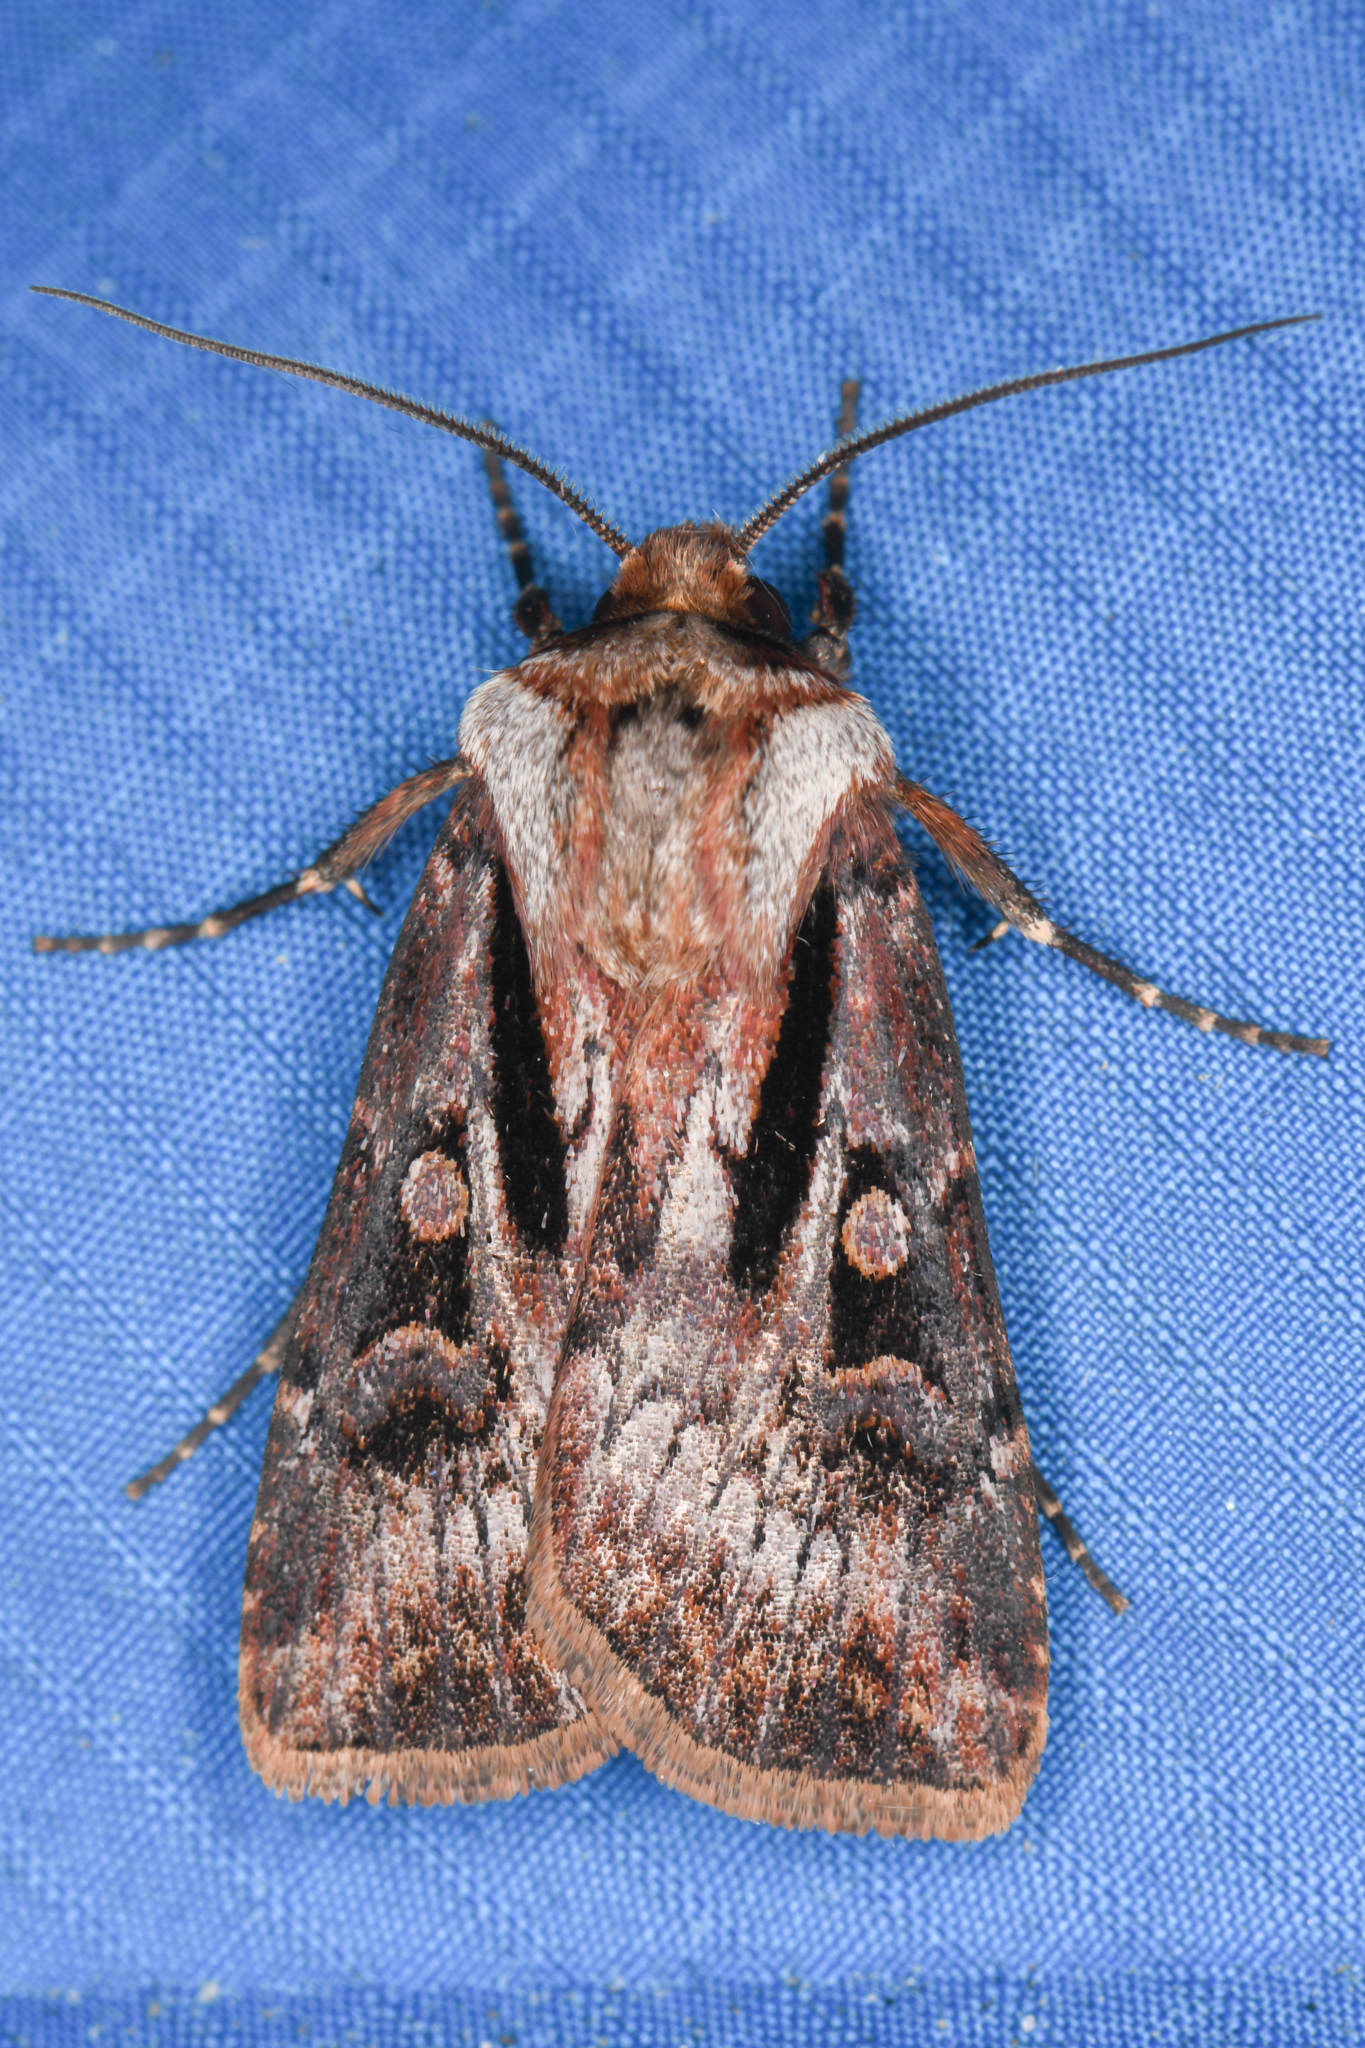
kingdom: Animalia
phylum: Arthropoda
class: Insecta
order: Lepidoptera
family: Noctuidae
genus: Agrotis
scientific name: Agrotis vancouverensis
